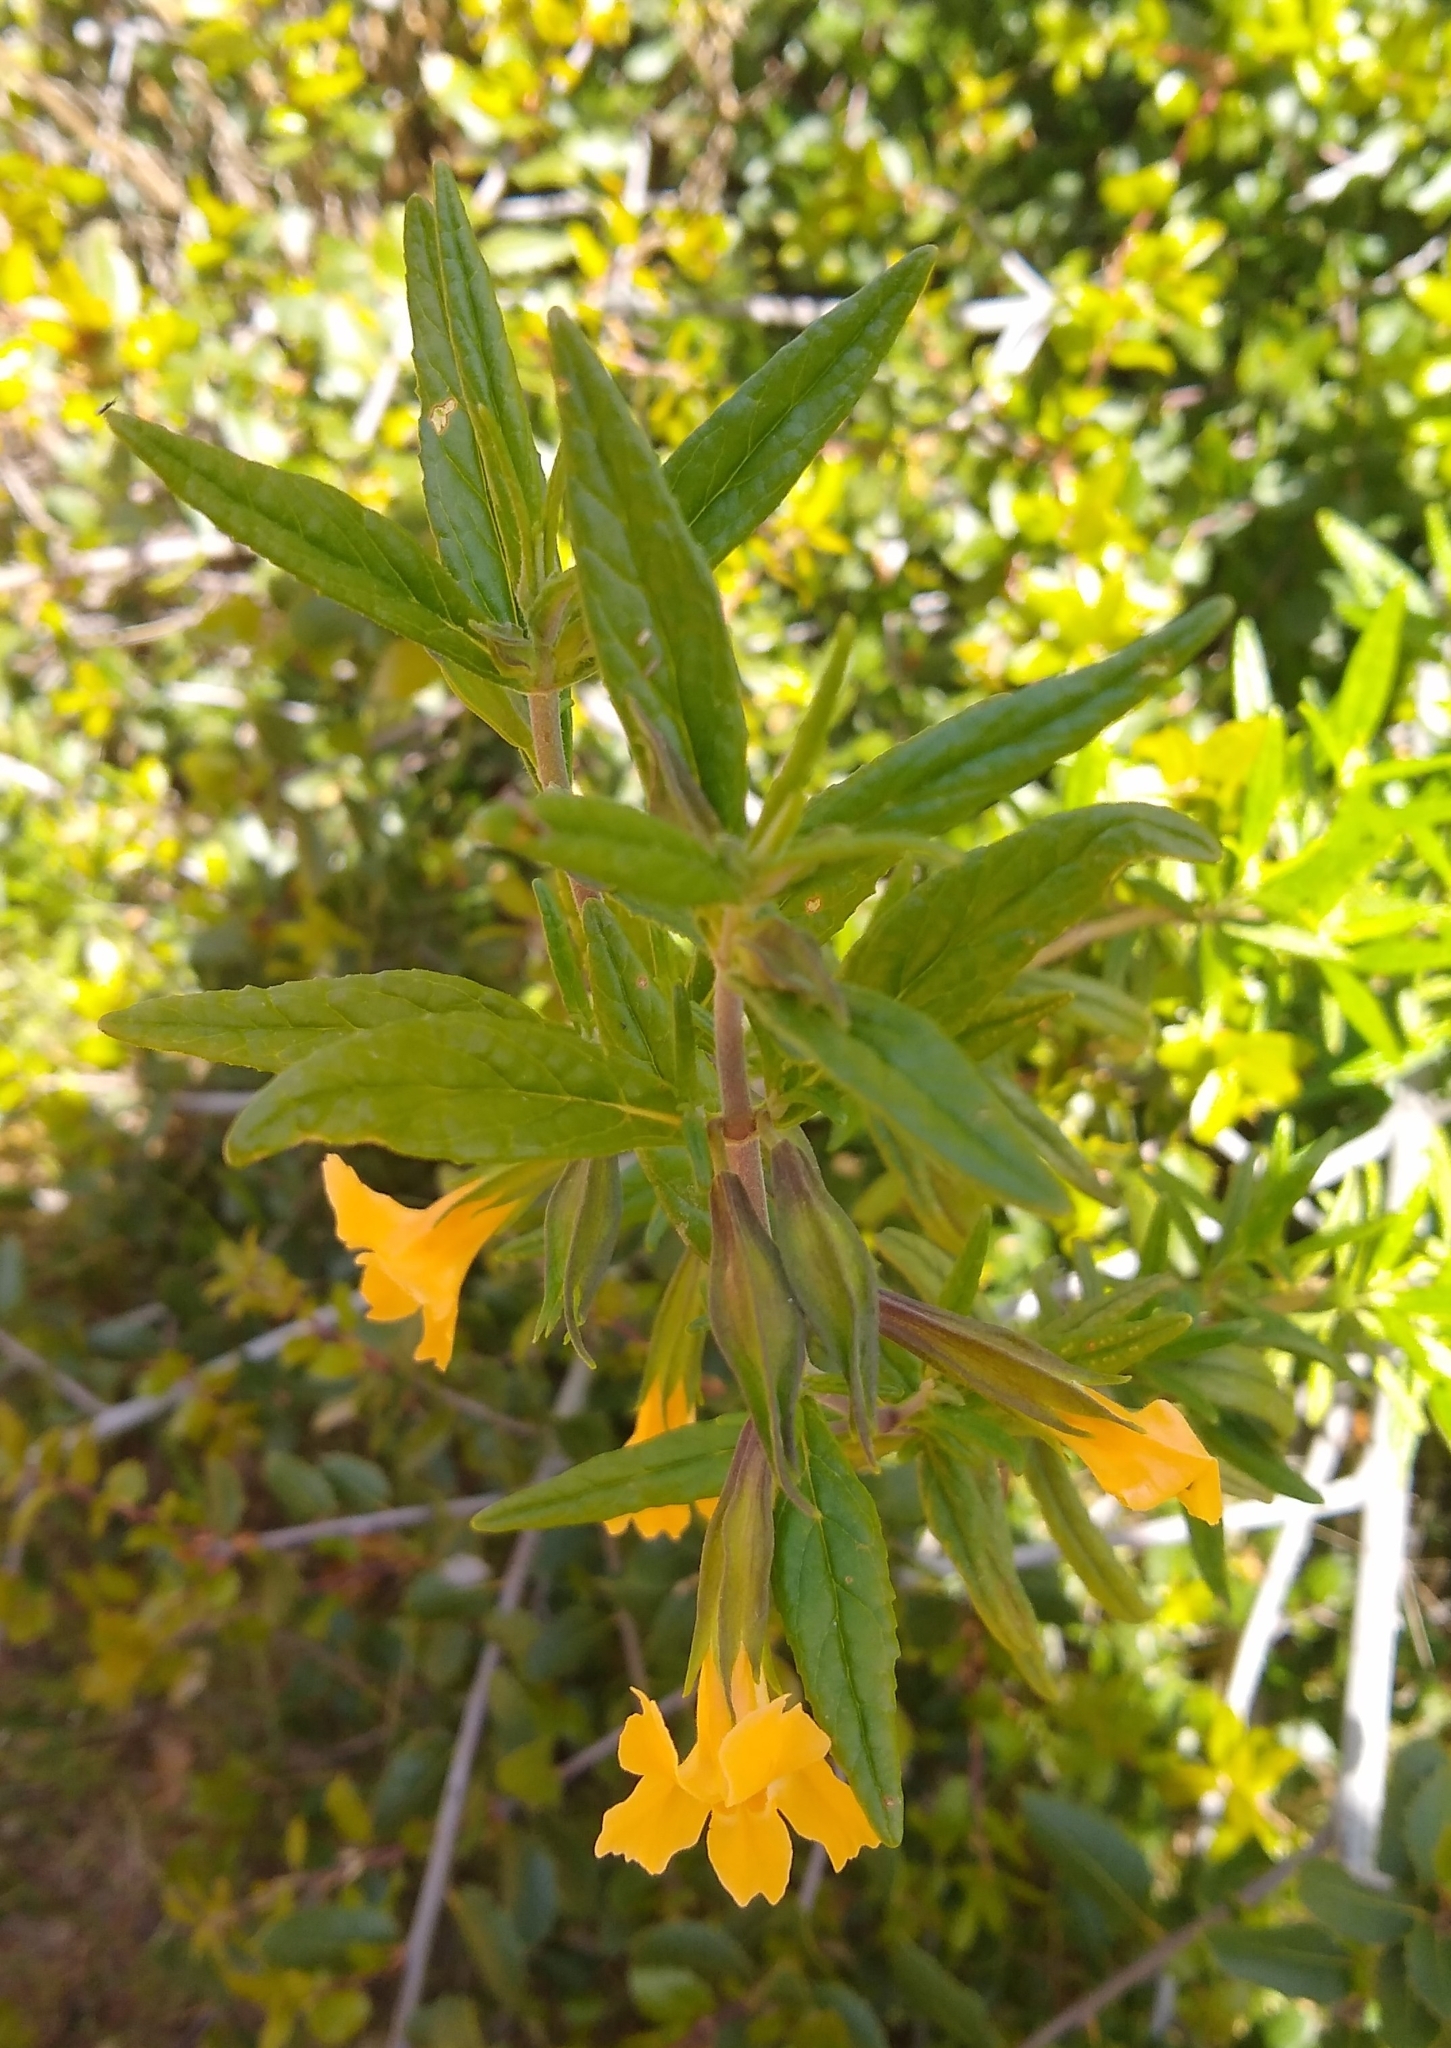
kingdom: Plantae
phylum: Tracheophyta
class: Magnoliopsida
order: Lamiales
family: Phrymaceae
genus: Diplacus
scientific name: Diplacus aurantiacus
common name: Bush monkey-flower
